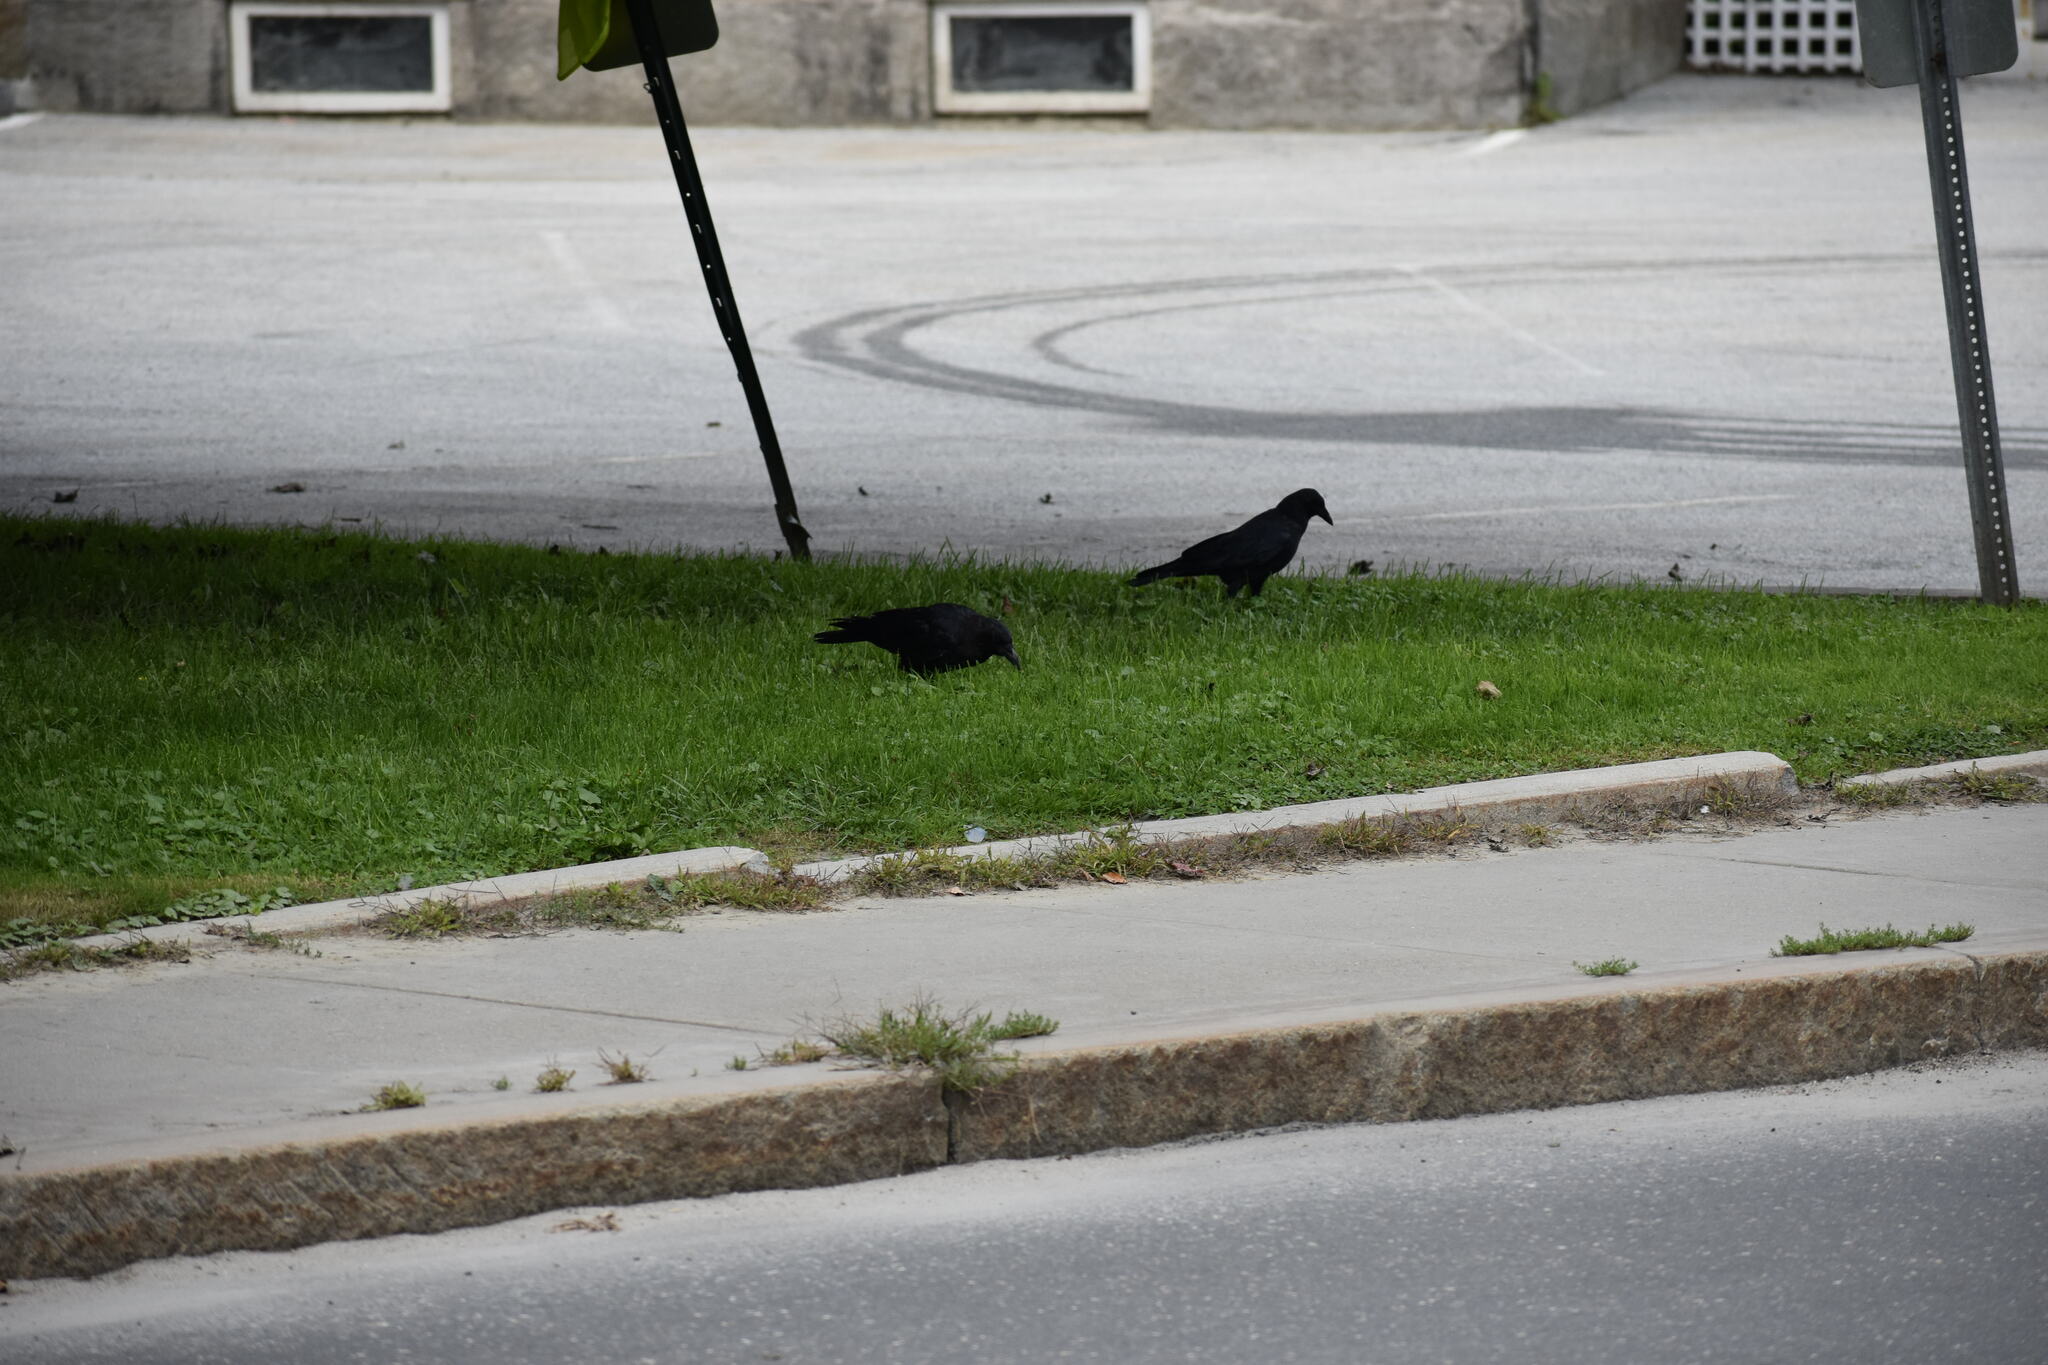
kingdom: Animalia
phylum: Chordata
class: Aves
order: Passeriformes
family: Corvidae
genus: Corvus
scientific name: Corvus corax
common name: Common raven
